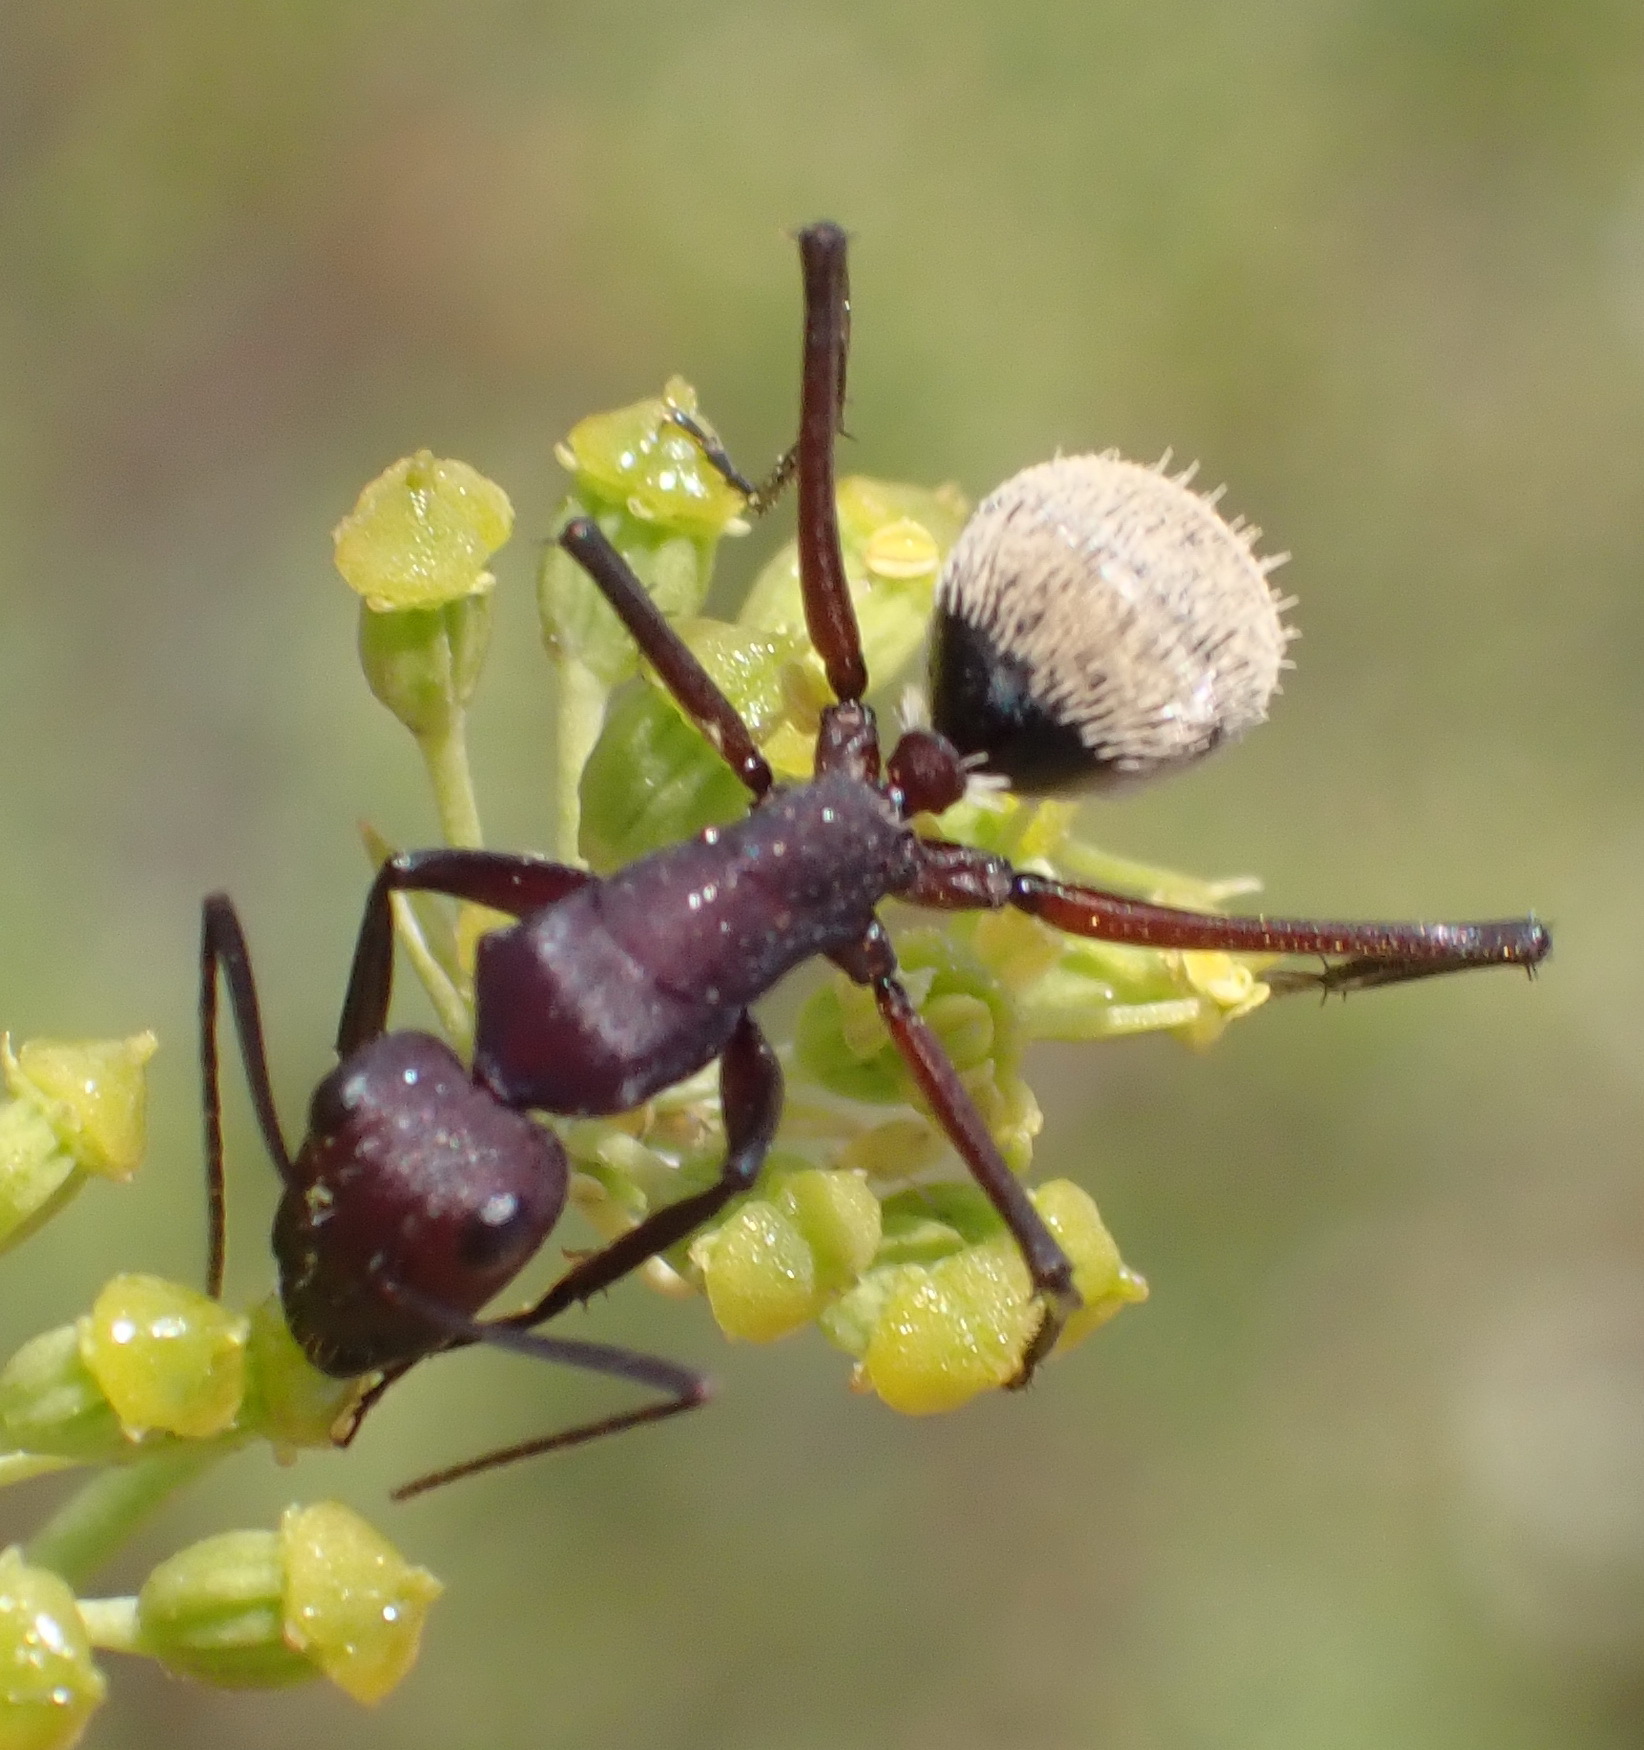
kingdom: Animalia
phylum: Arthropoda
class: Insecta
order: Hymenoptera
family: Formicidae
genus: Camponotus
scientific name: Camponotus storeatus
